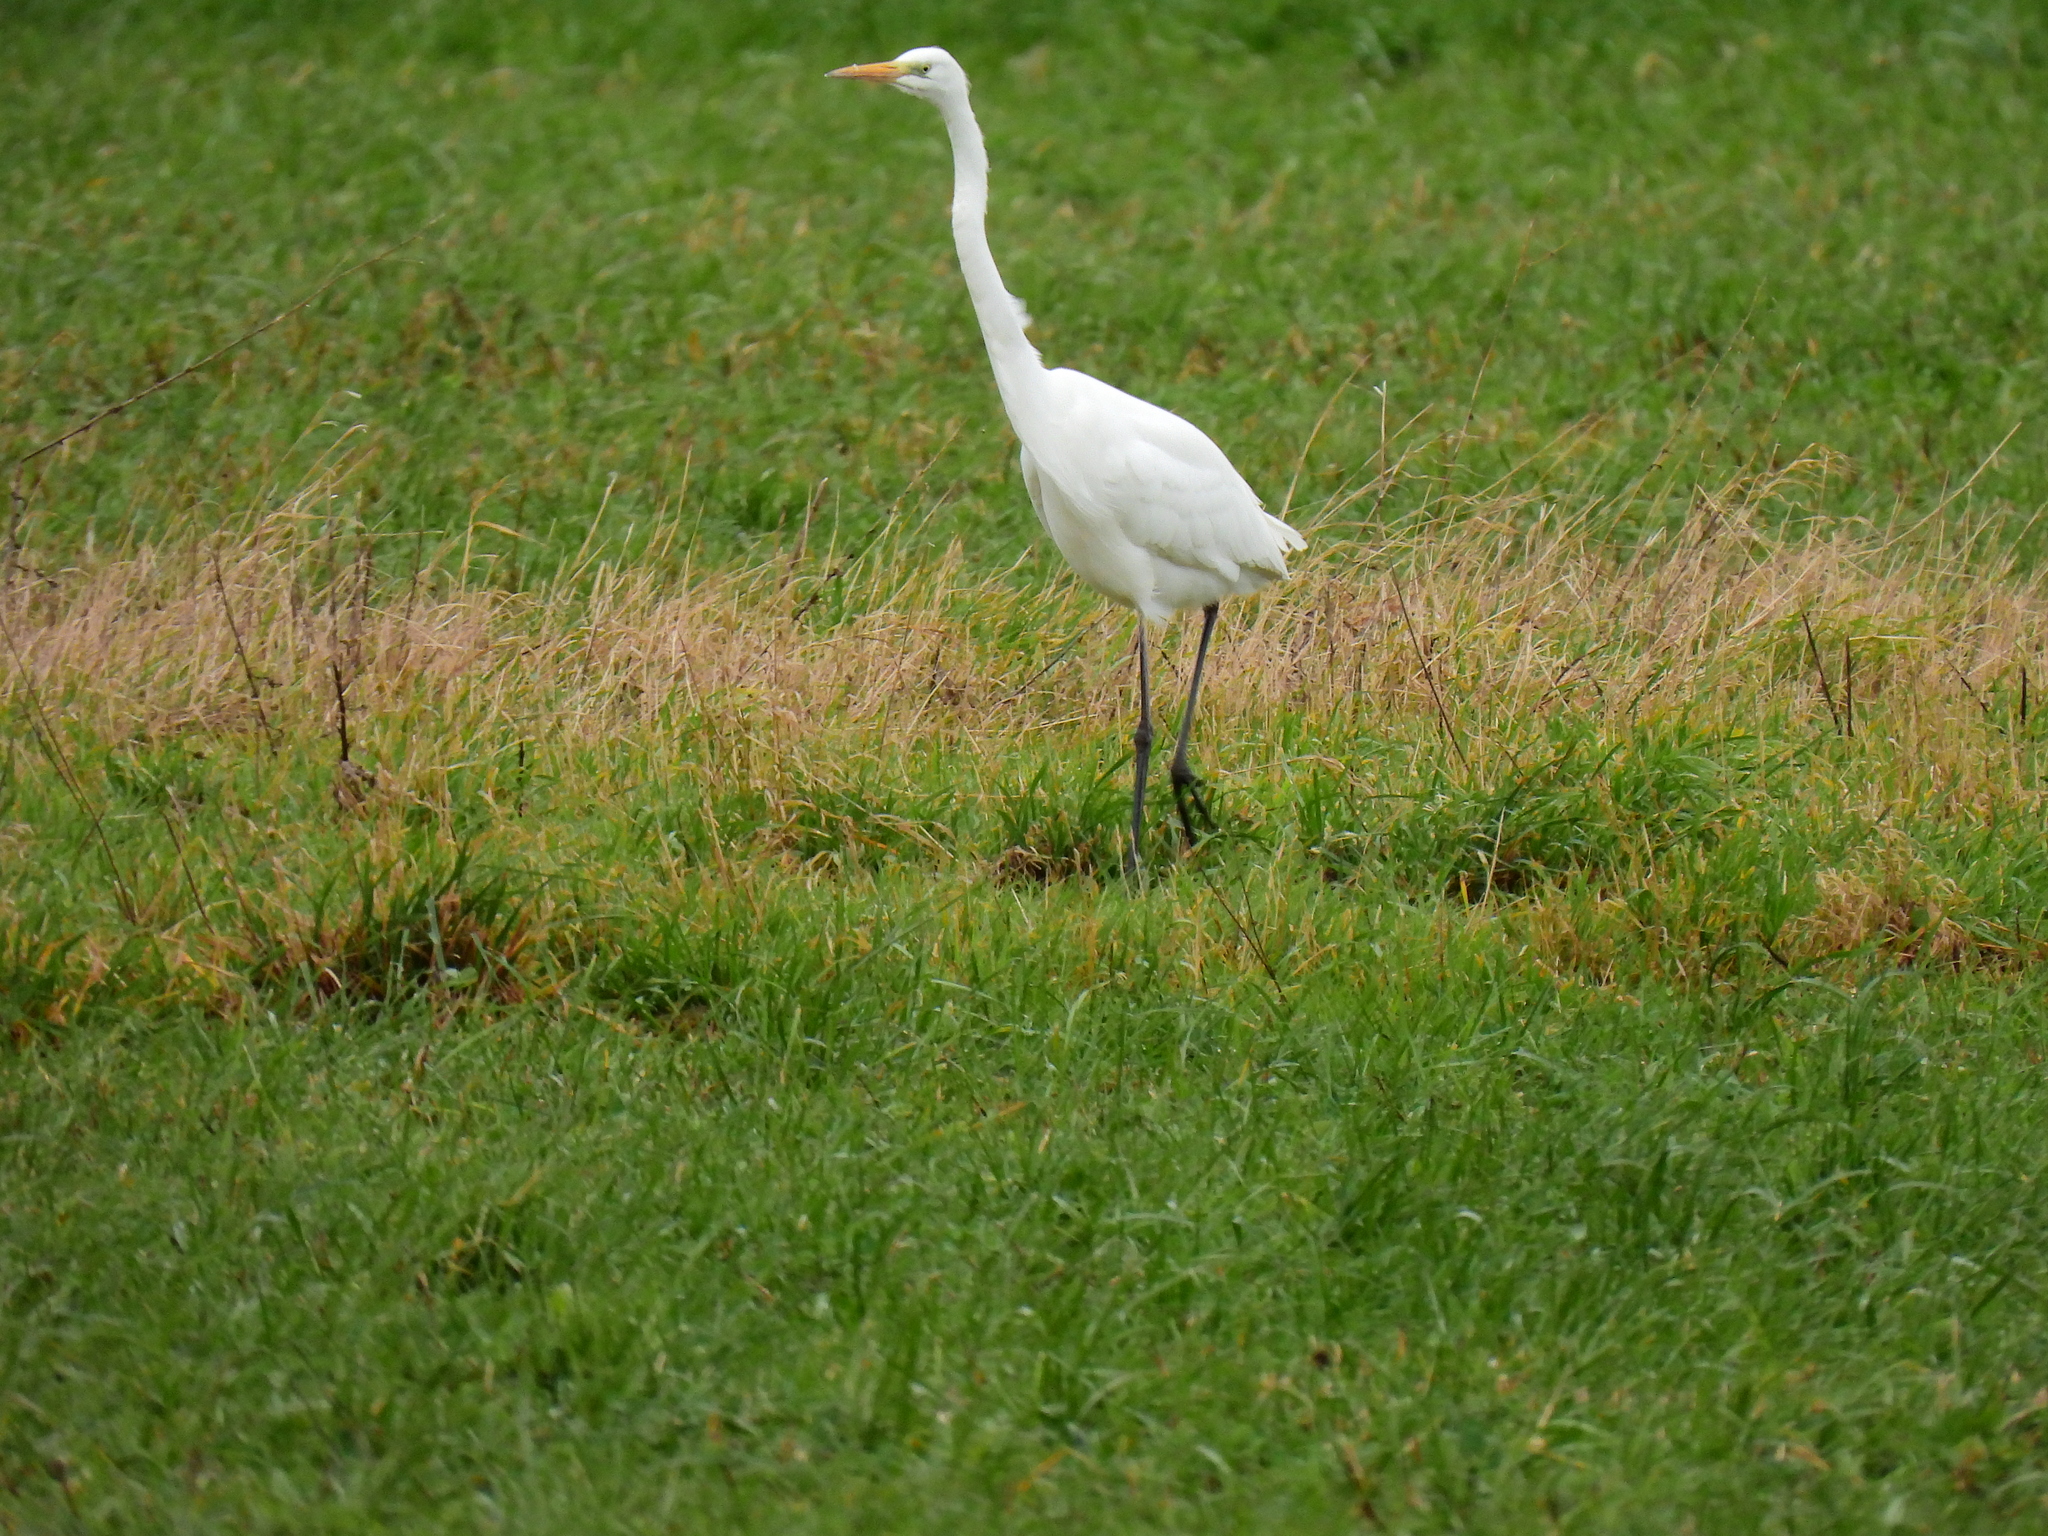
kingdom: Animalia
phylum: Chordata
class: Aves
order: Pelecaniformes
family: Ardeidae
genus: Ardea
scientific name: Ardea alba
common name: Great egret
